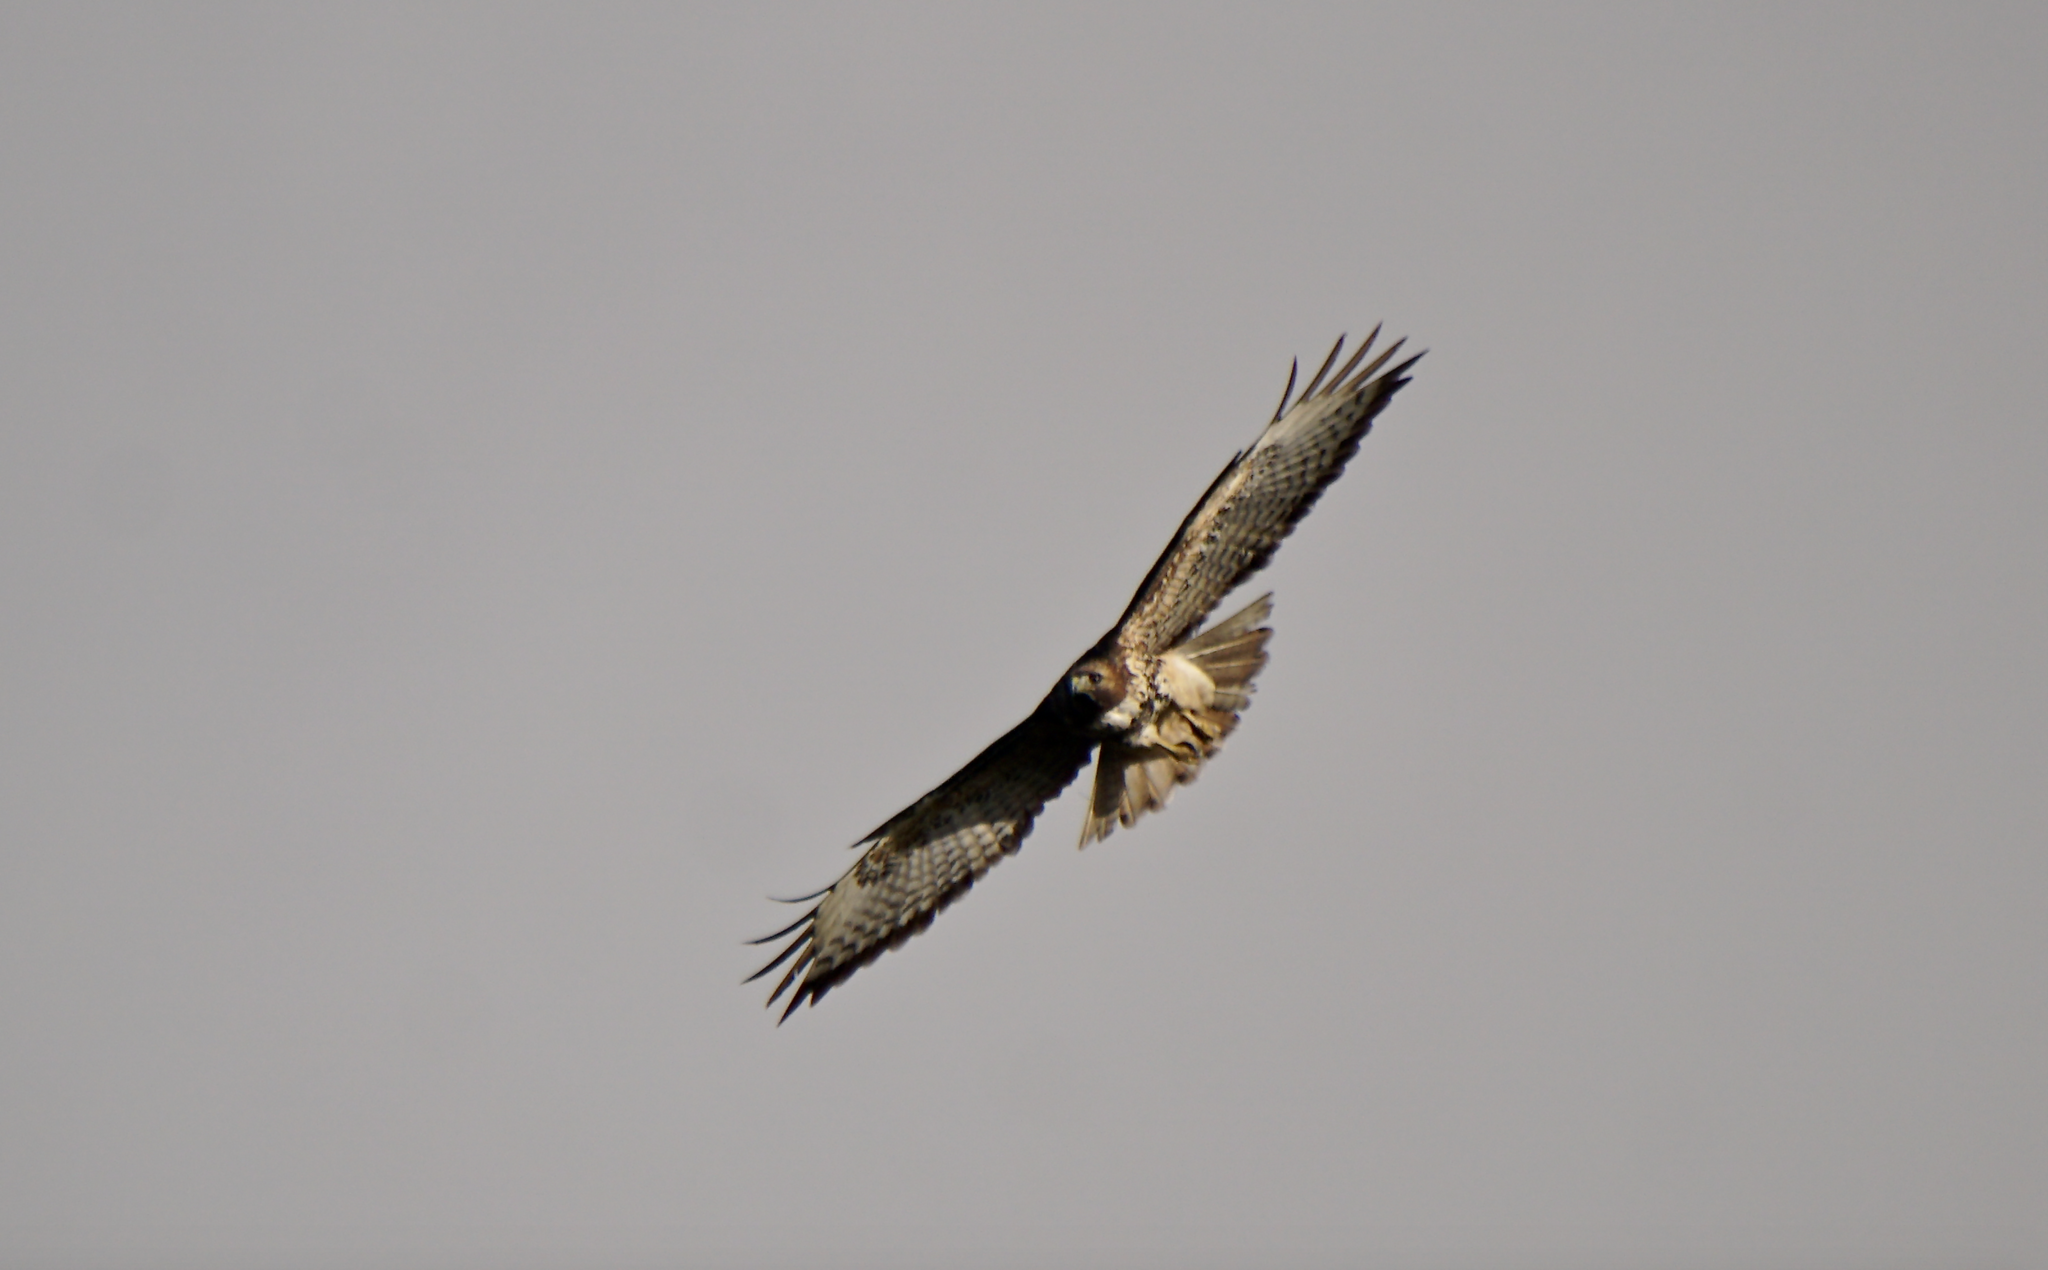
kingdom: Animalia
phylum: Chordata
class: Aves
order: Accipitriformes
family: Accipitridae
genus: Buteo
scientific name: Buteo jamaicensis
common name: Red-tailed hawk
